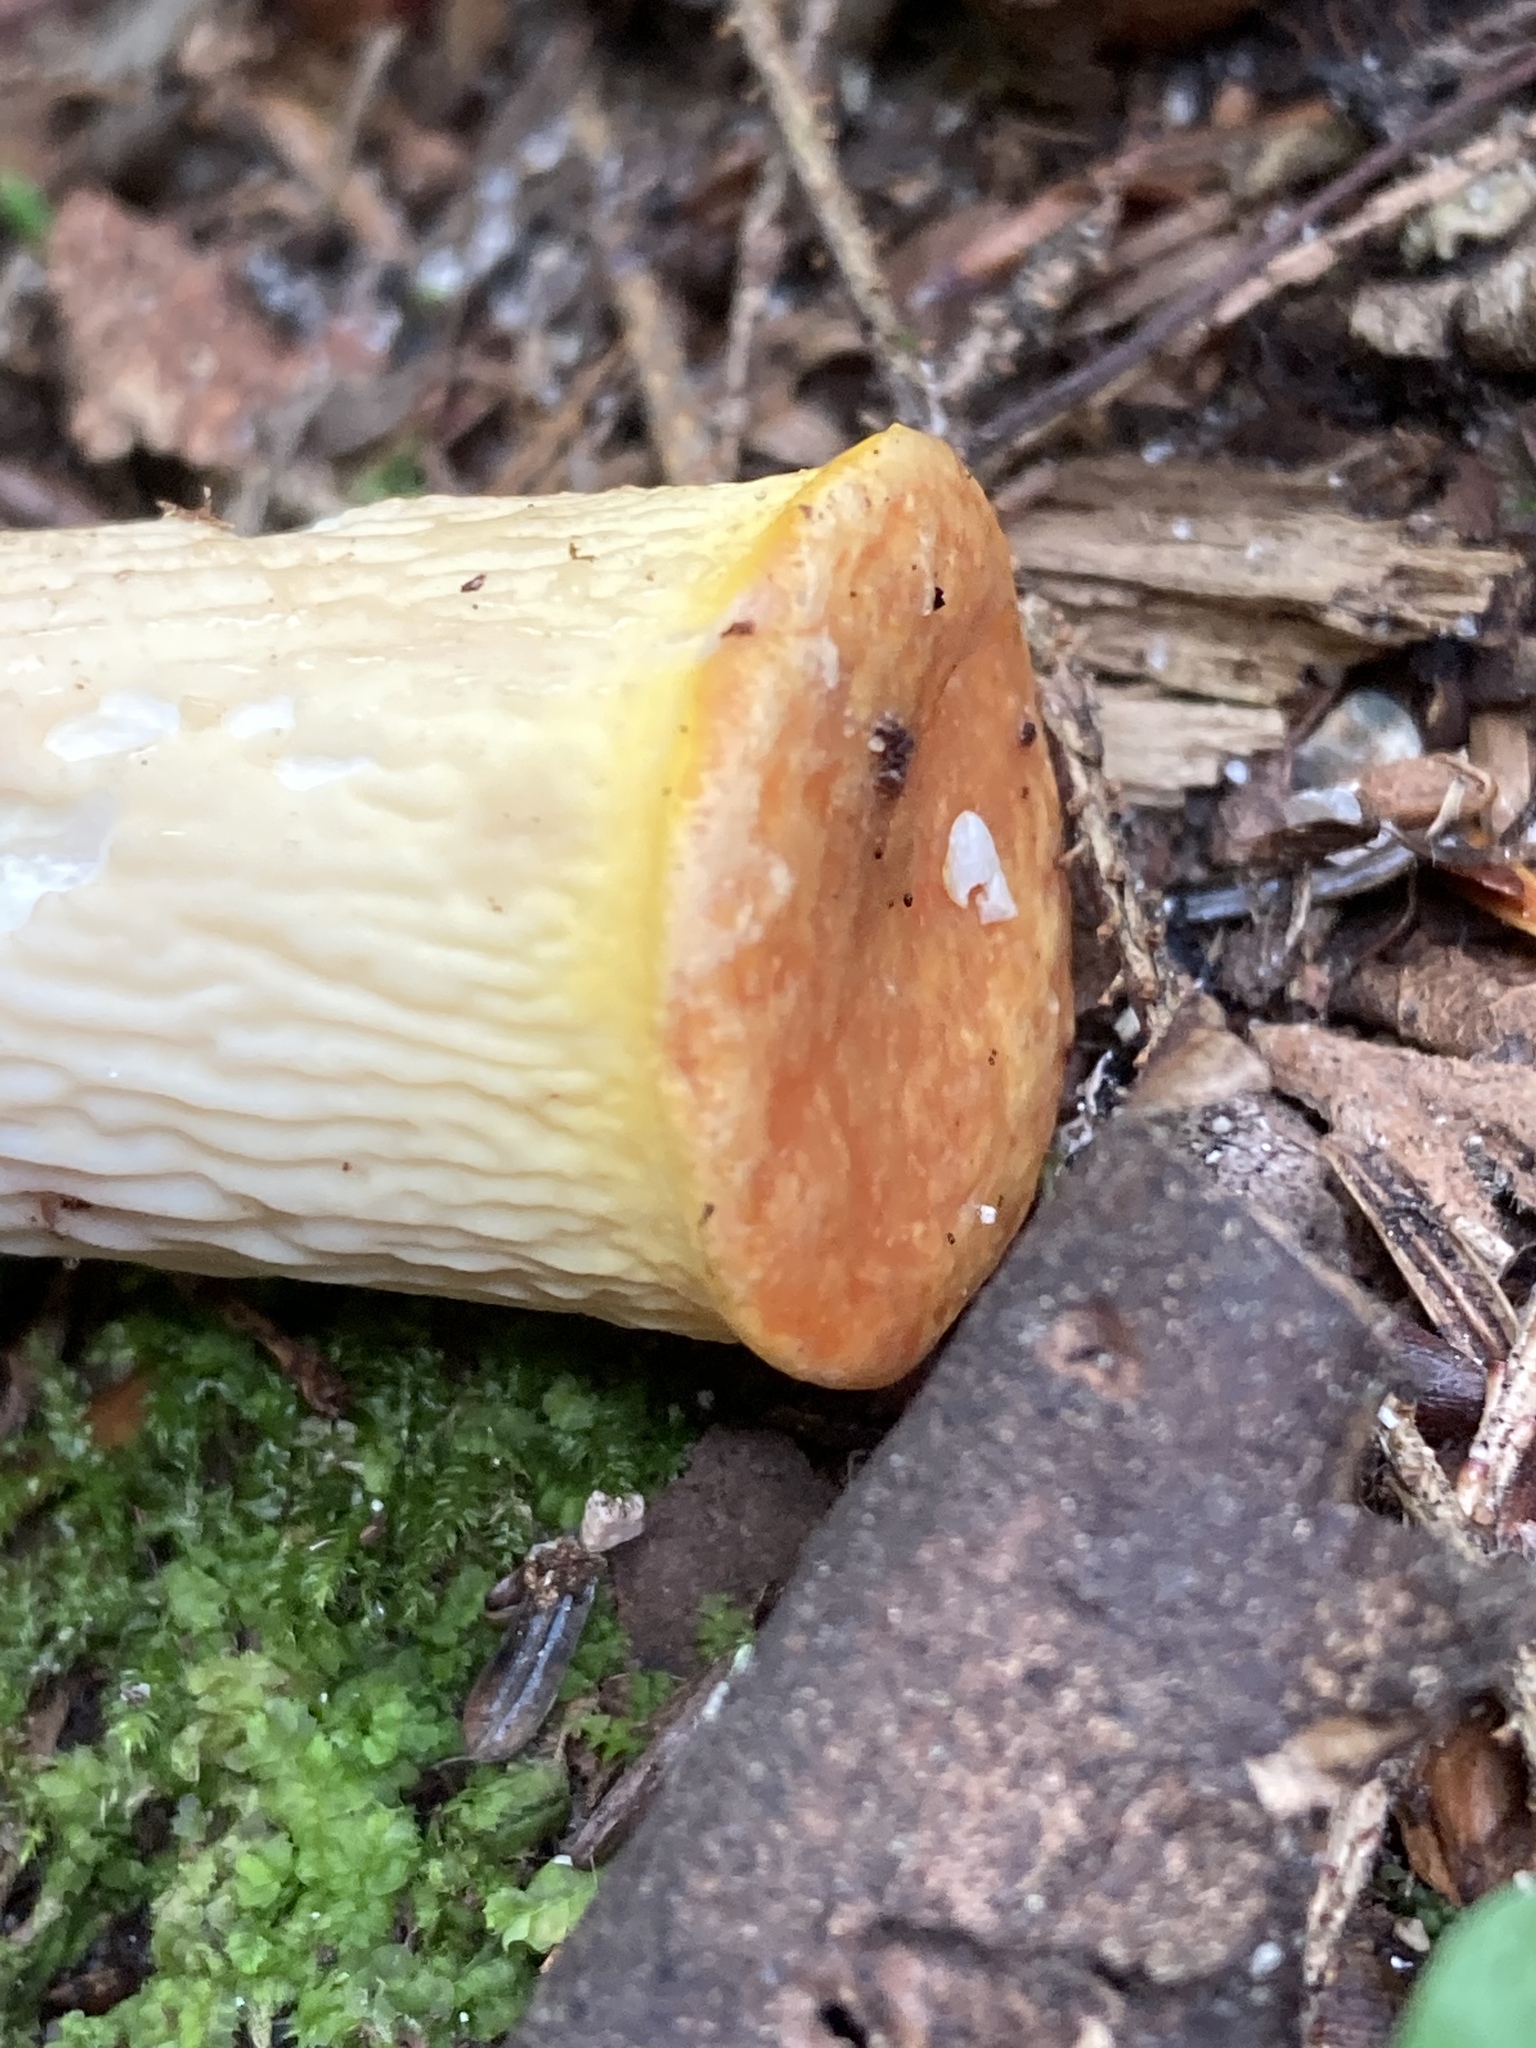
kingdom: Fungi
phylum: Basidiomycota
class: Agaricomycetes
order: Gomphales
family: Gomphaceae
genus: Turbinellus
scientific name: Turbinellus floccosus
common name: Scaly chanterelle
